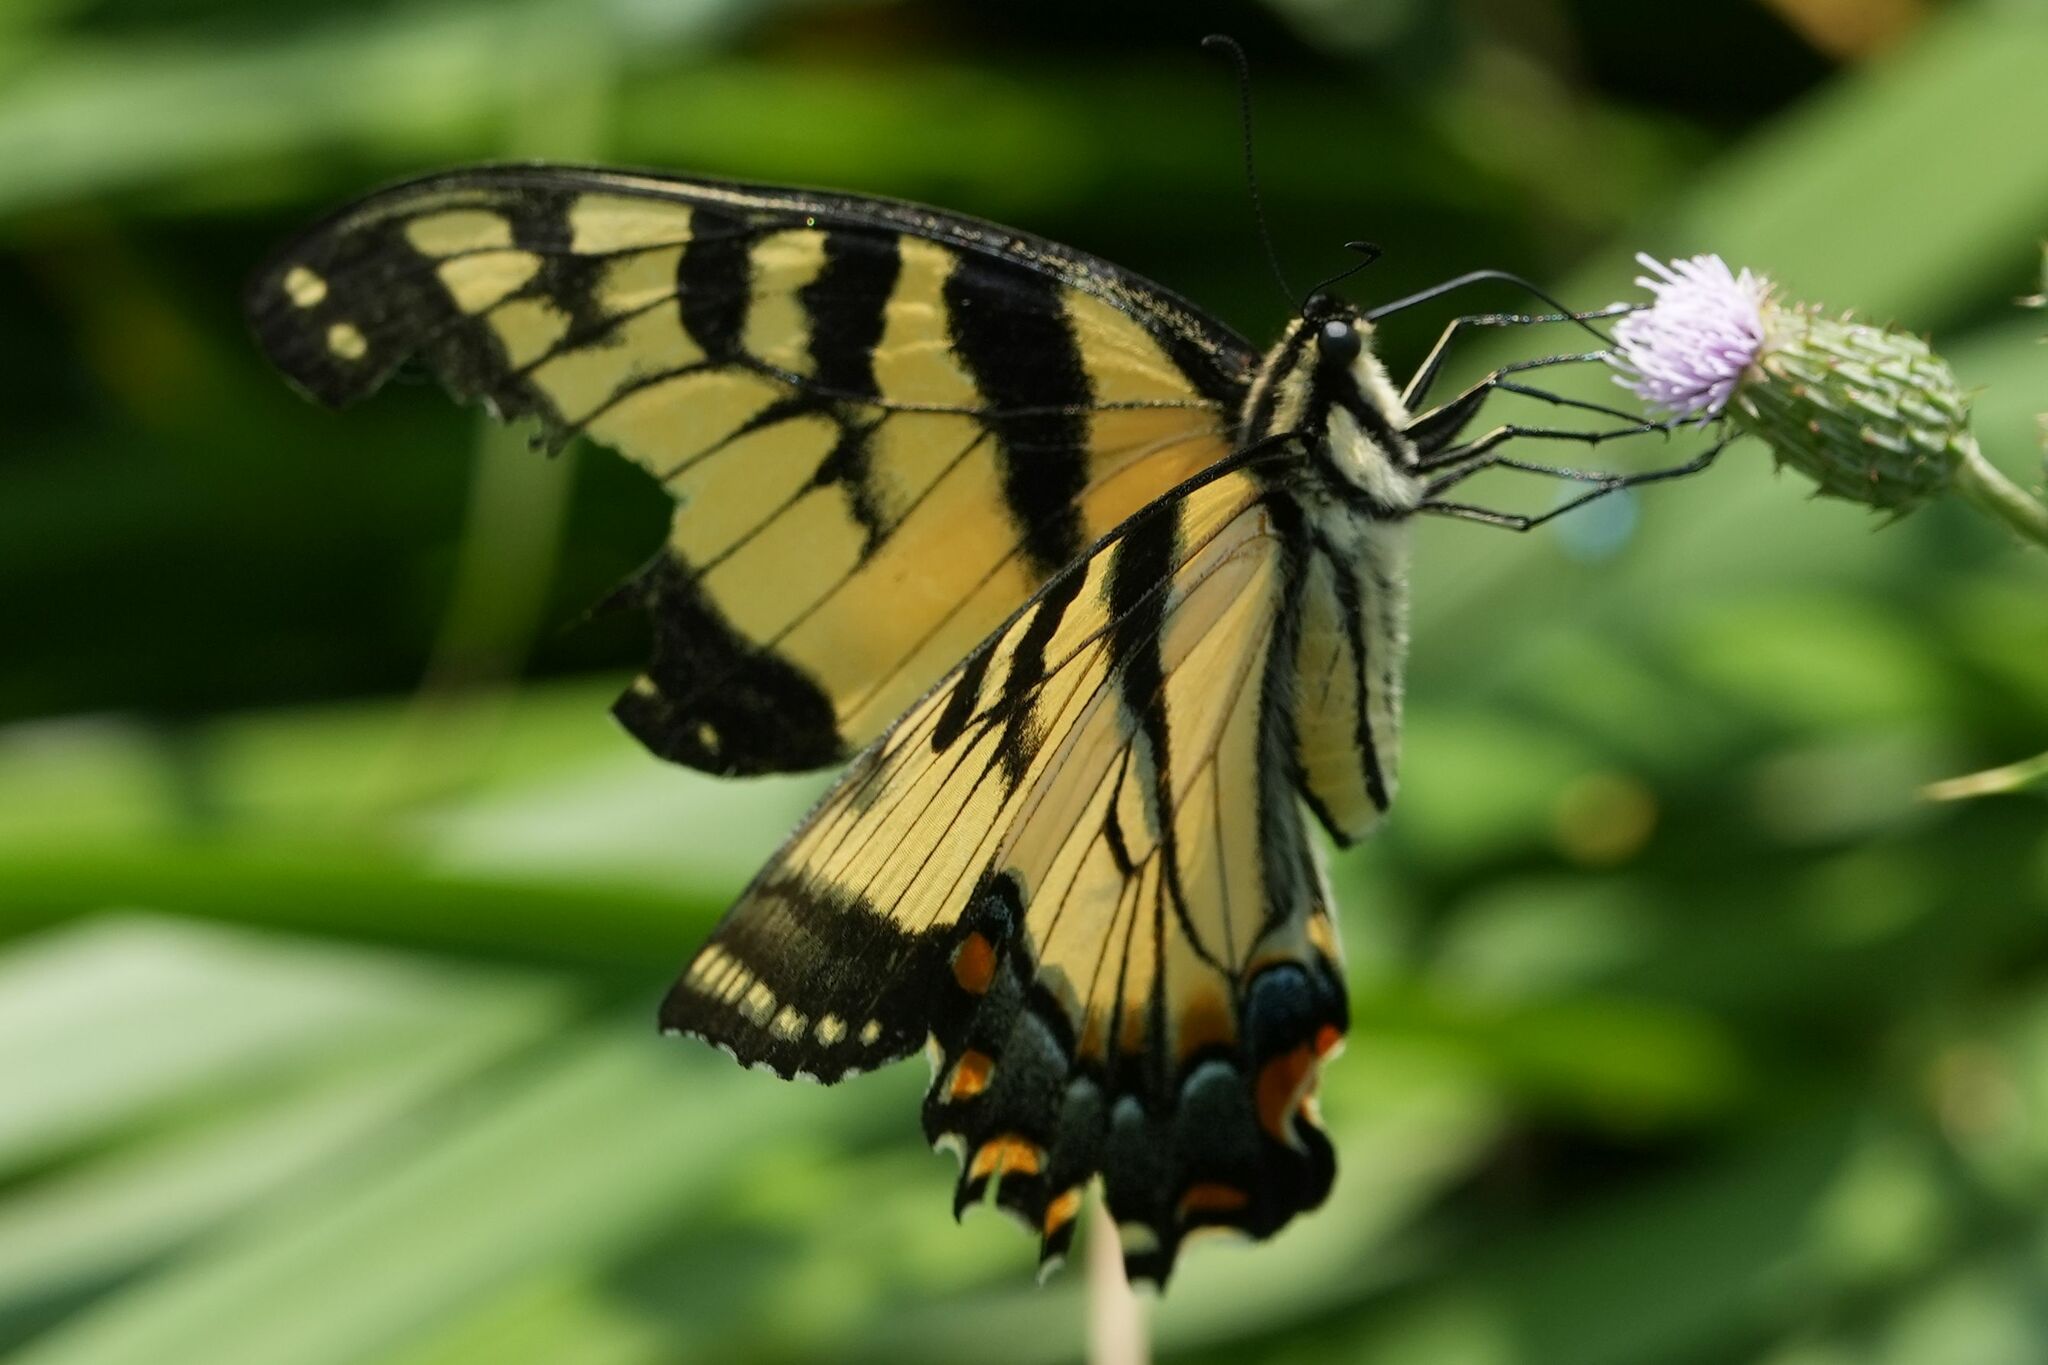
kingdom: Animalia
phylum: Arthropoda
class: Insecta
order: Lepidoptera
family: Papilionidae
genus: Papilio
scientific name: Papilio
